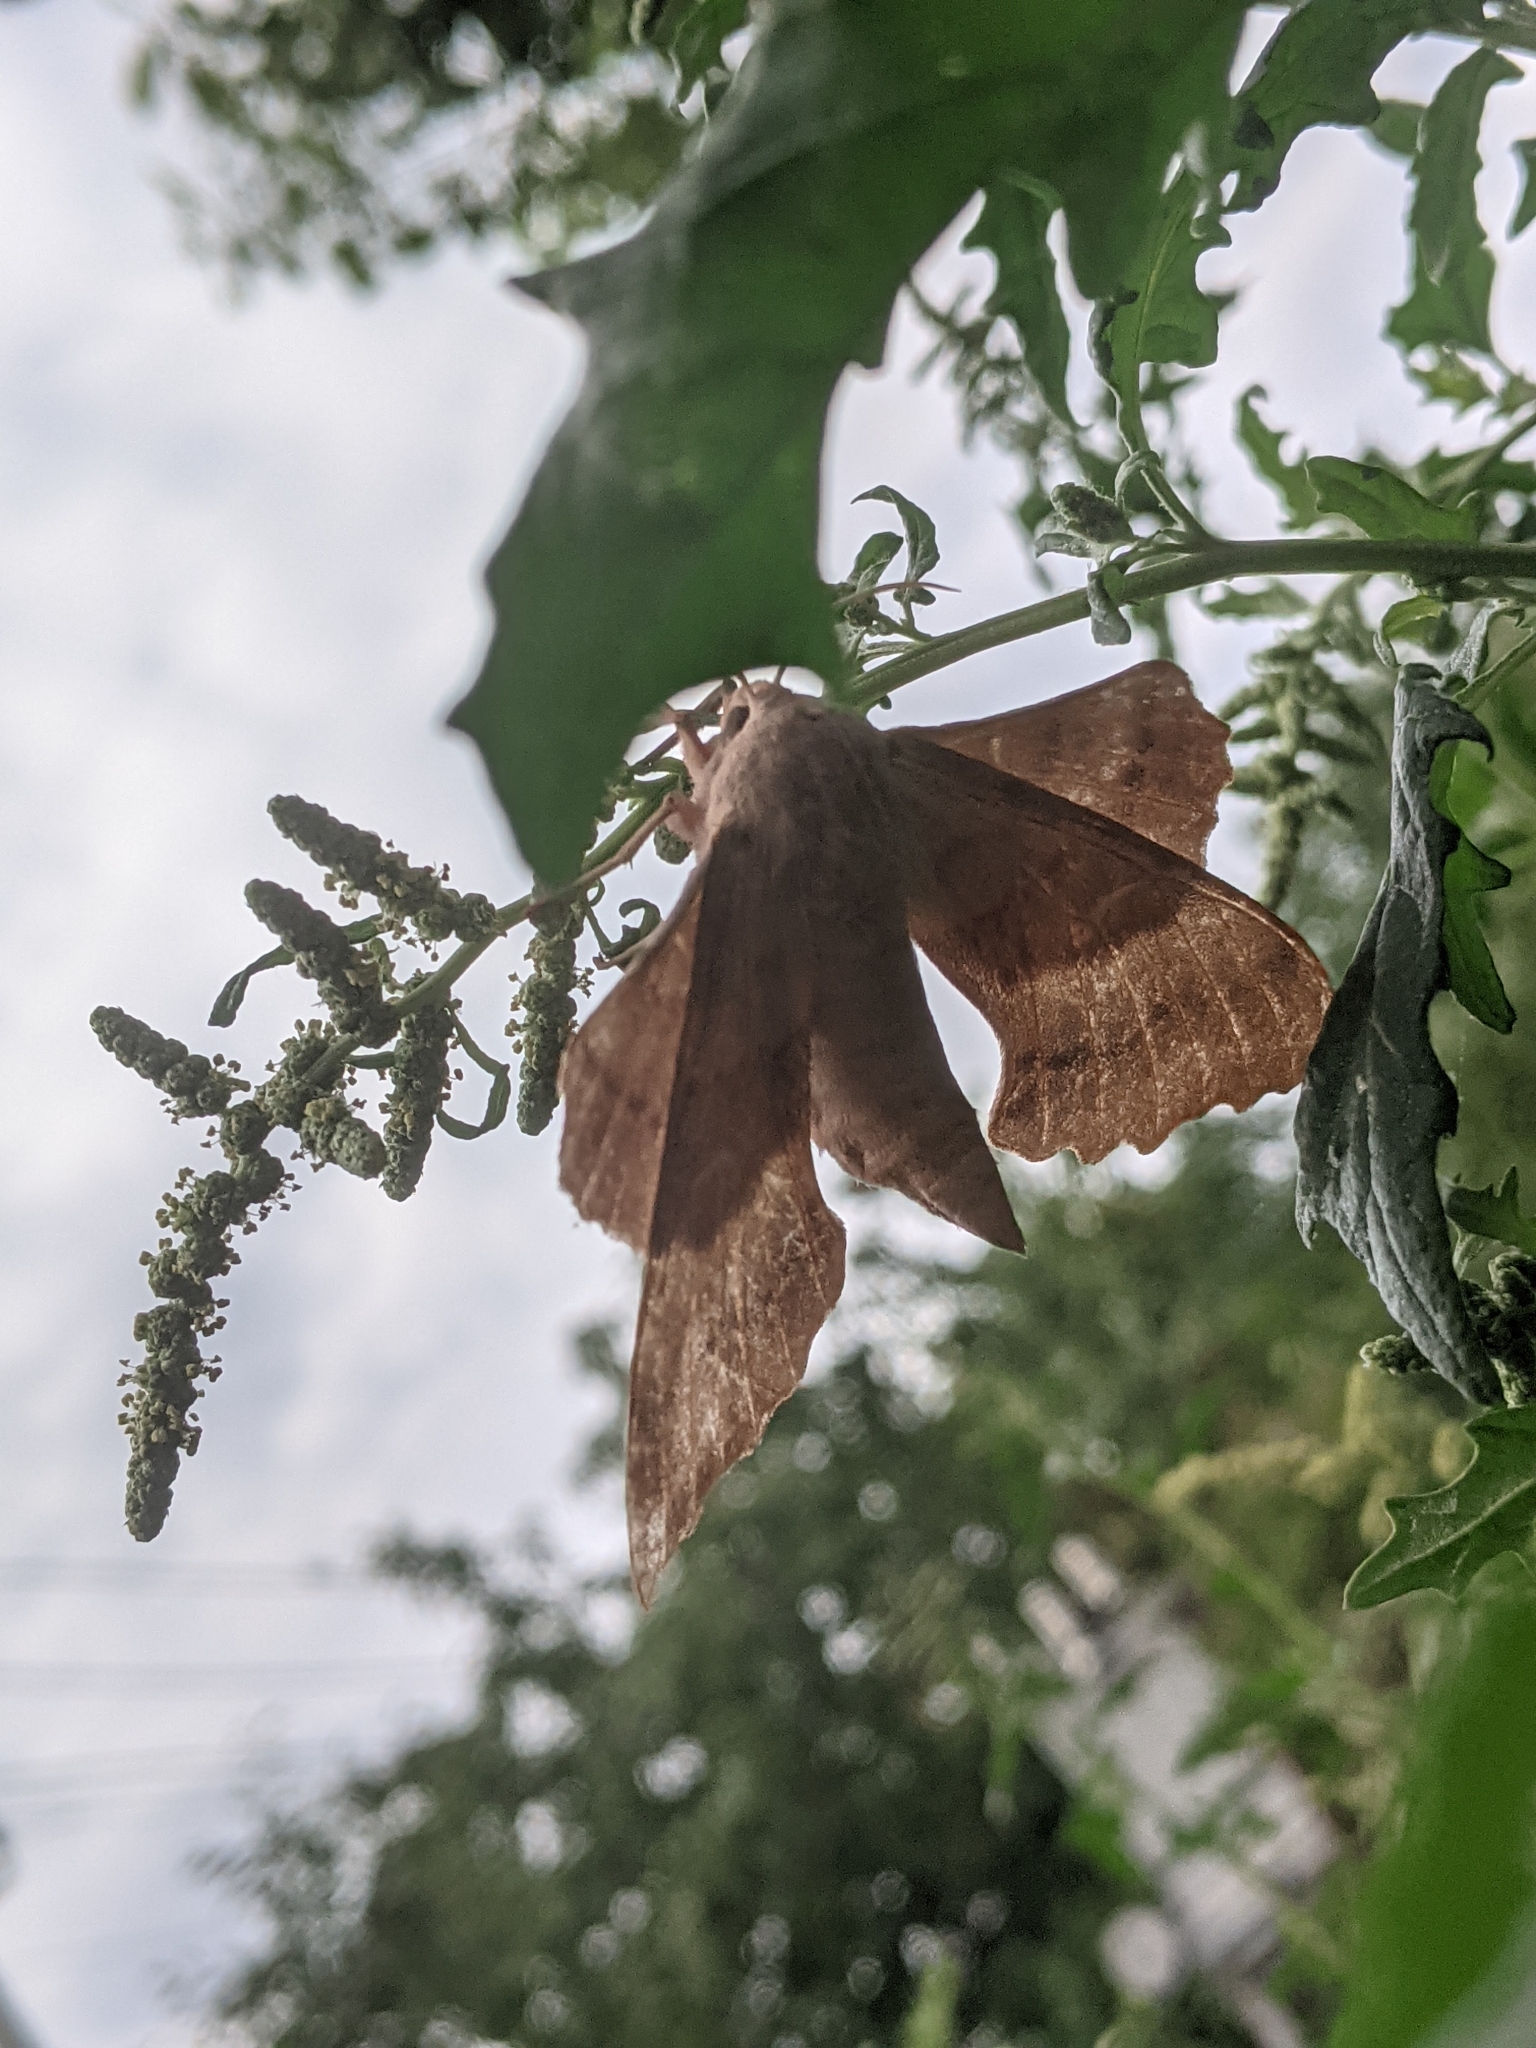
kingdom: Animalia
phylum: Arthropoda
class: Insecta
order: Lepidoptera
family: Sphingidae
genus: Laothoe
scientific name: Laothoe populi
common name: Poplar hawk-moth
